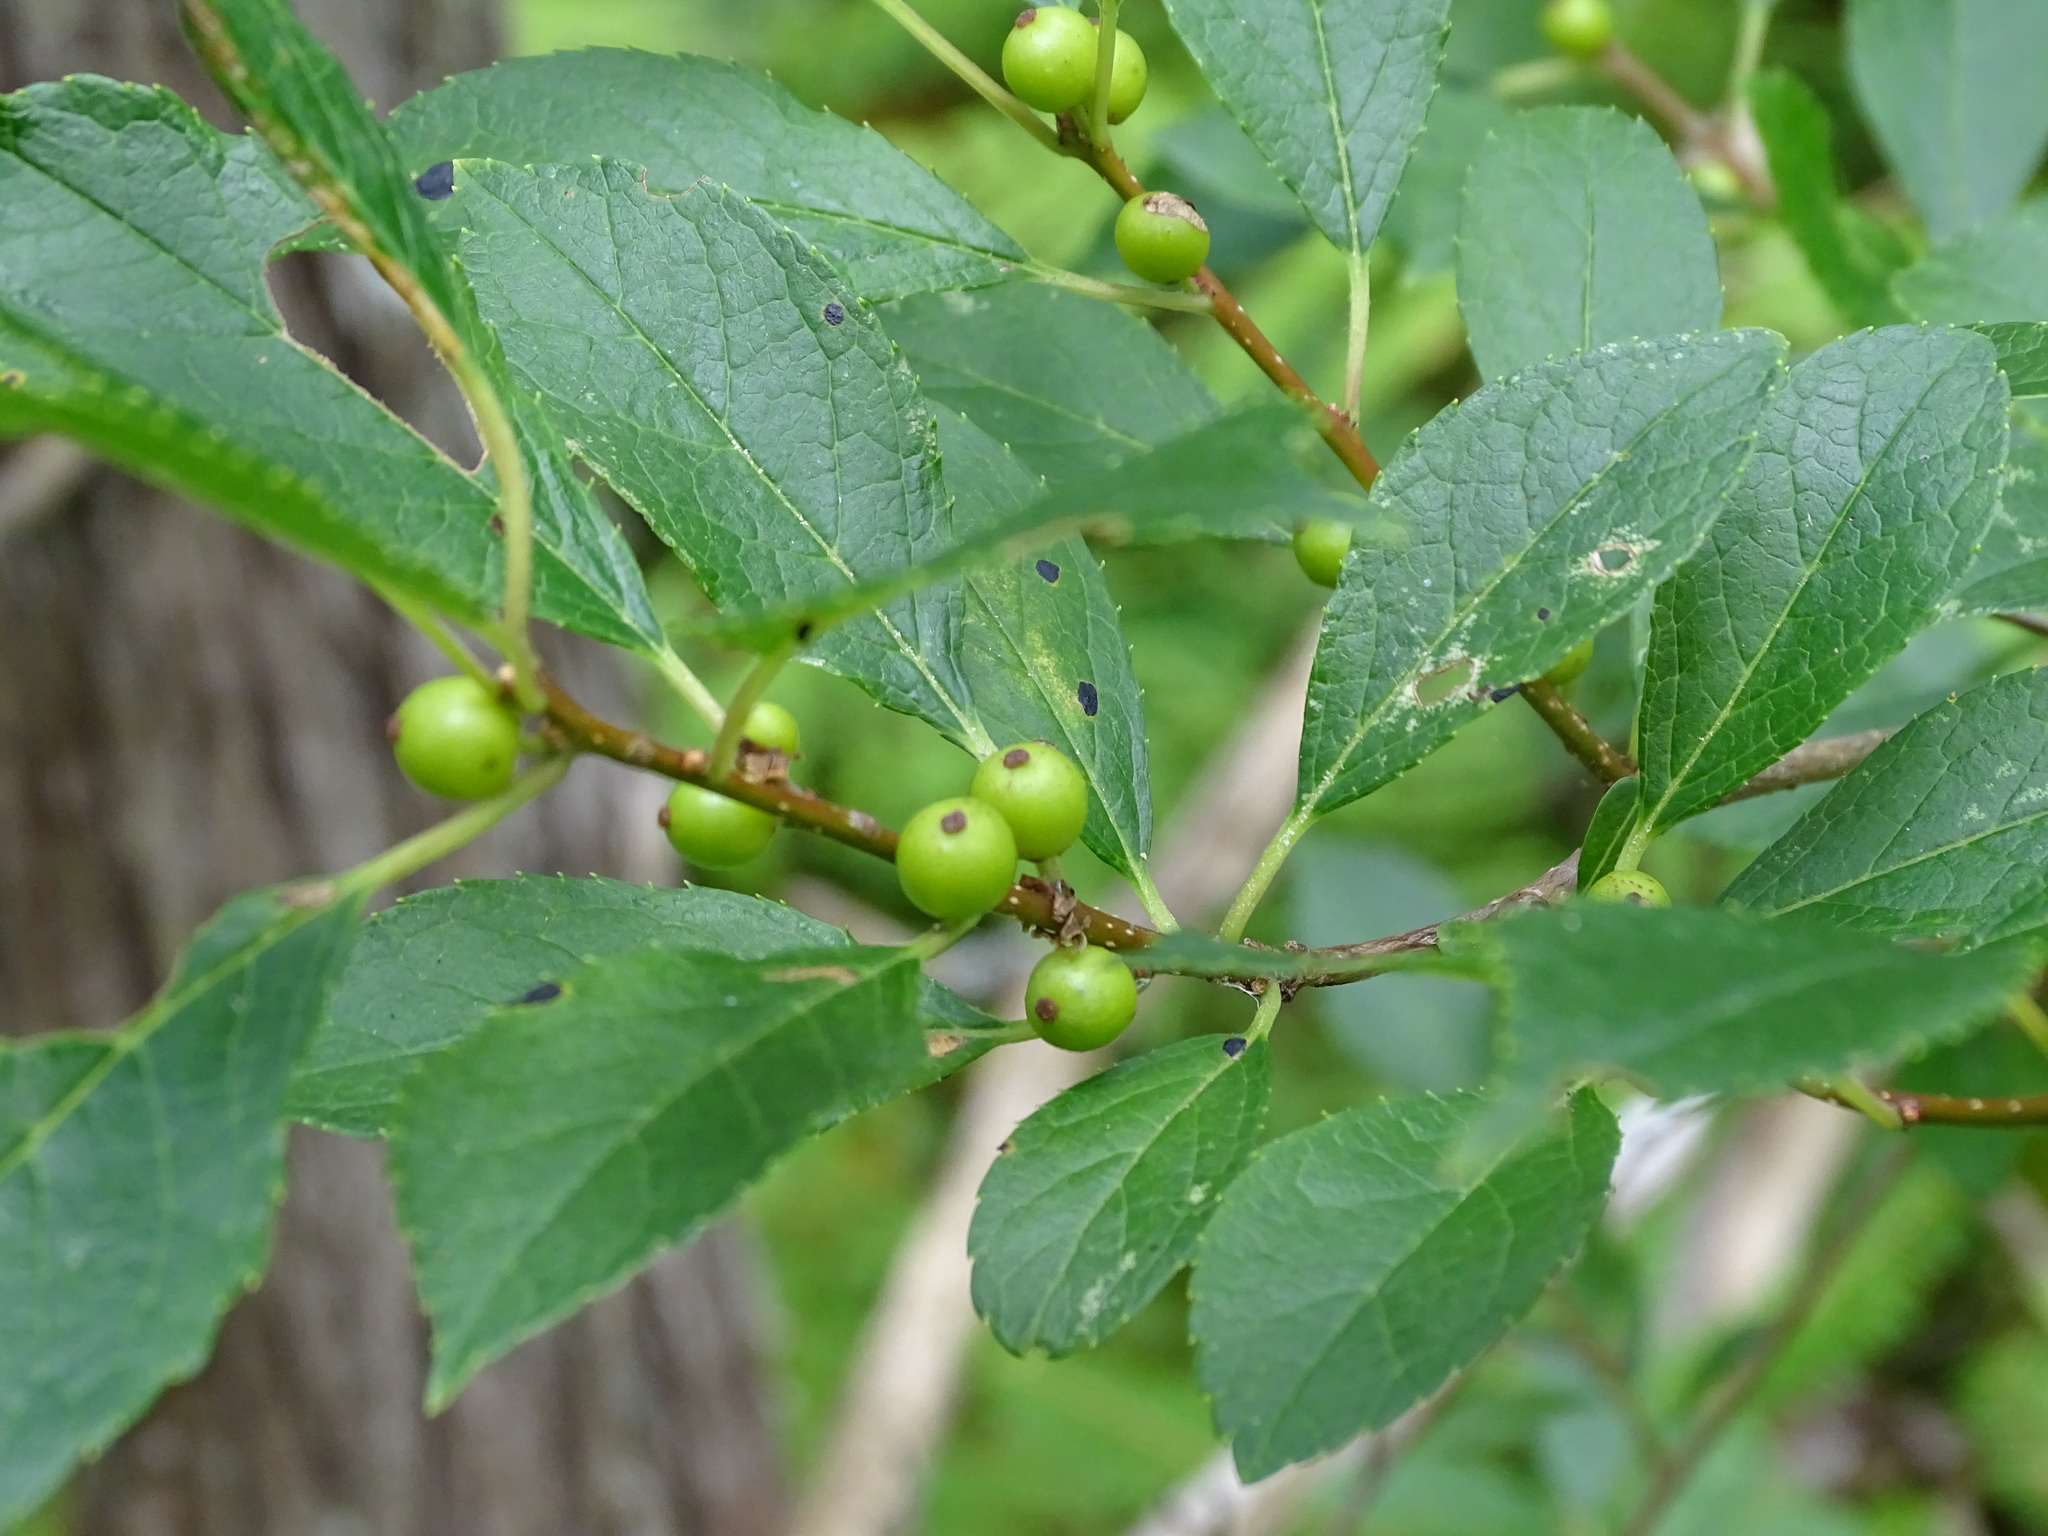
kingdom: Plantae
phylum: Tracheophyta
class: Magnoliopsida
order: Aquifoliales
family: Aquifoliaceae
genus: Ilex
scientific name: Ilex verticillata
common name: Virginia winterberry
